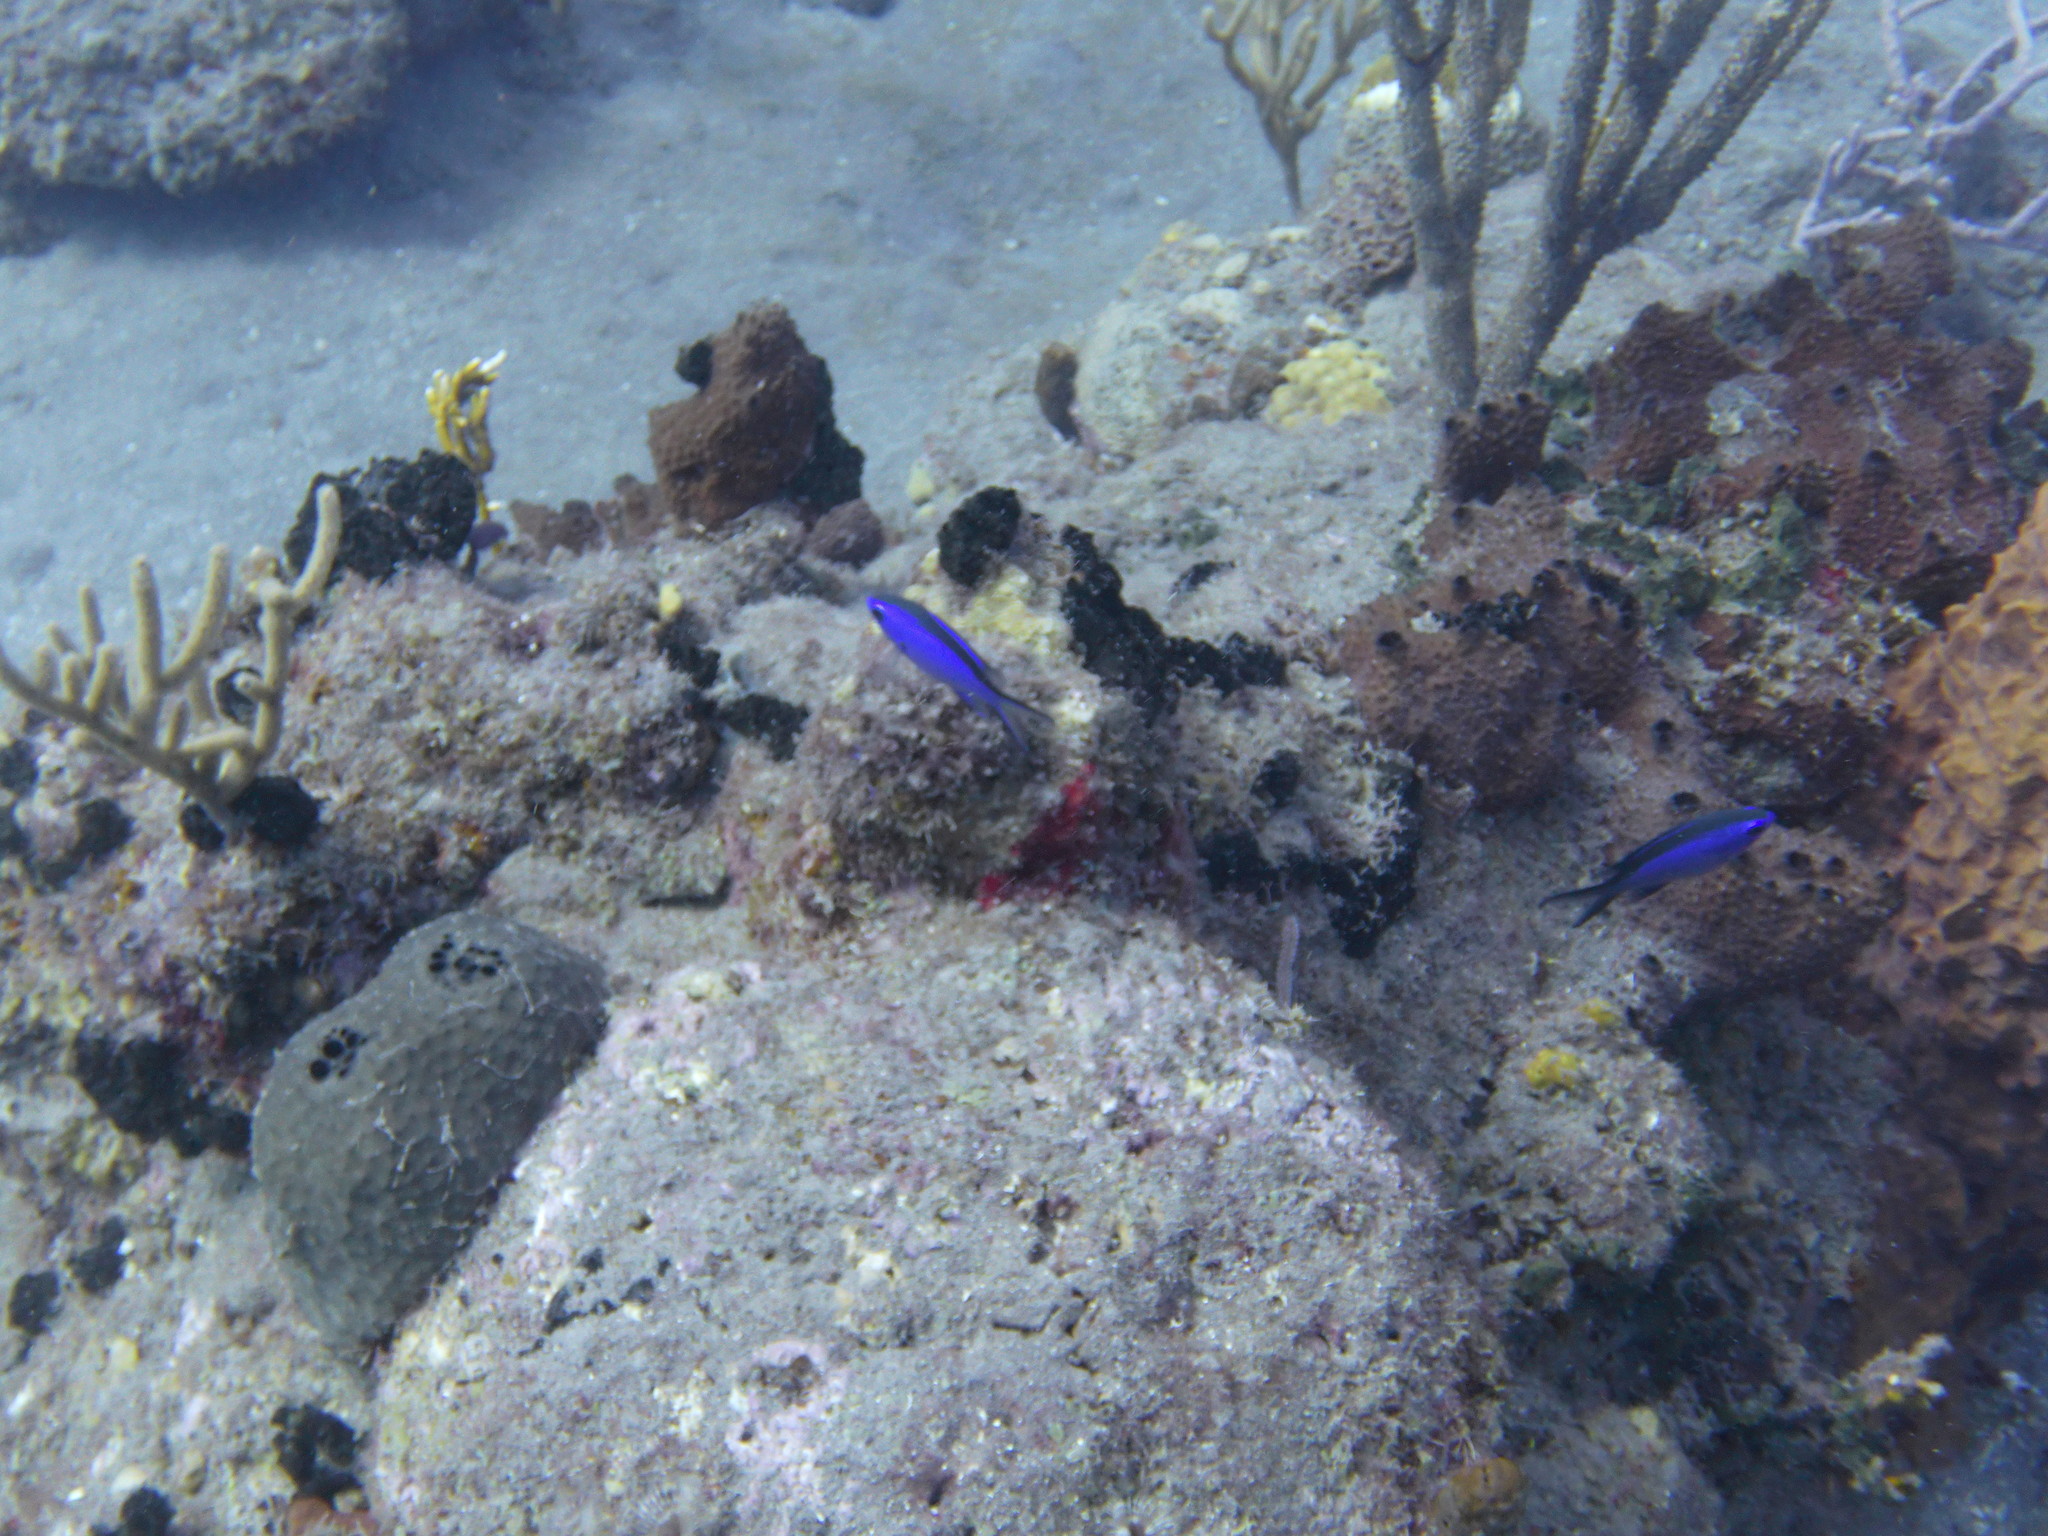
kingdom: Animalia
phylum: Chordata
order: Perciformes
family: Pomacentridae
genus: Chromis
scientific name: Chromis cyanea
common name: Blue chromis
